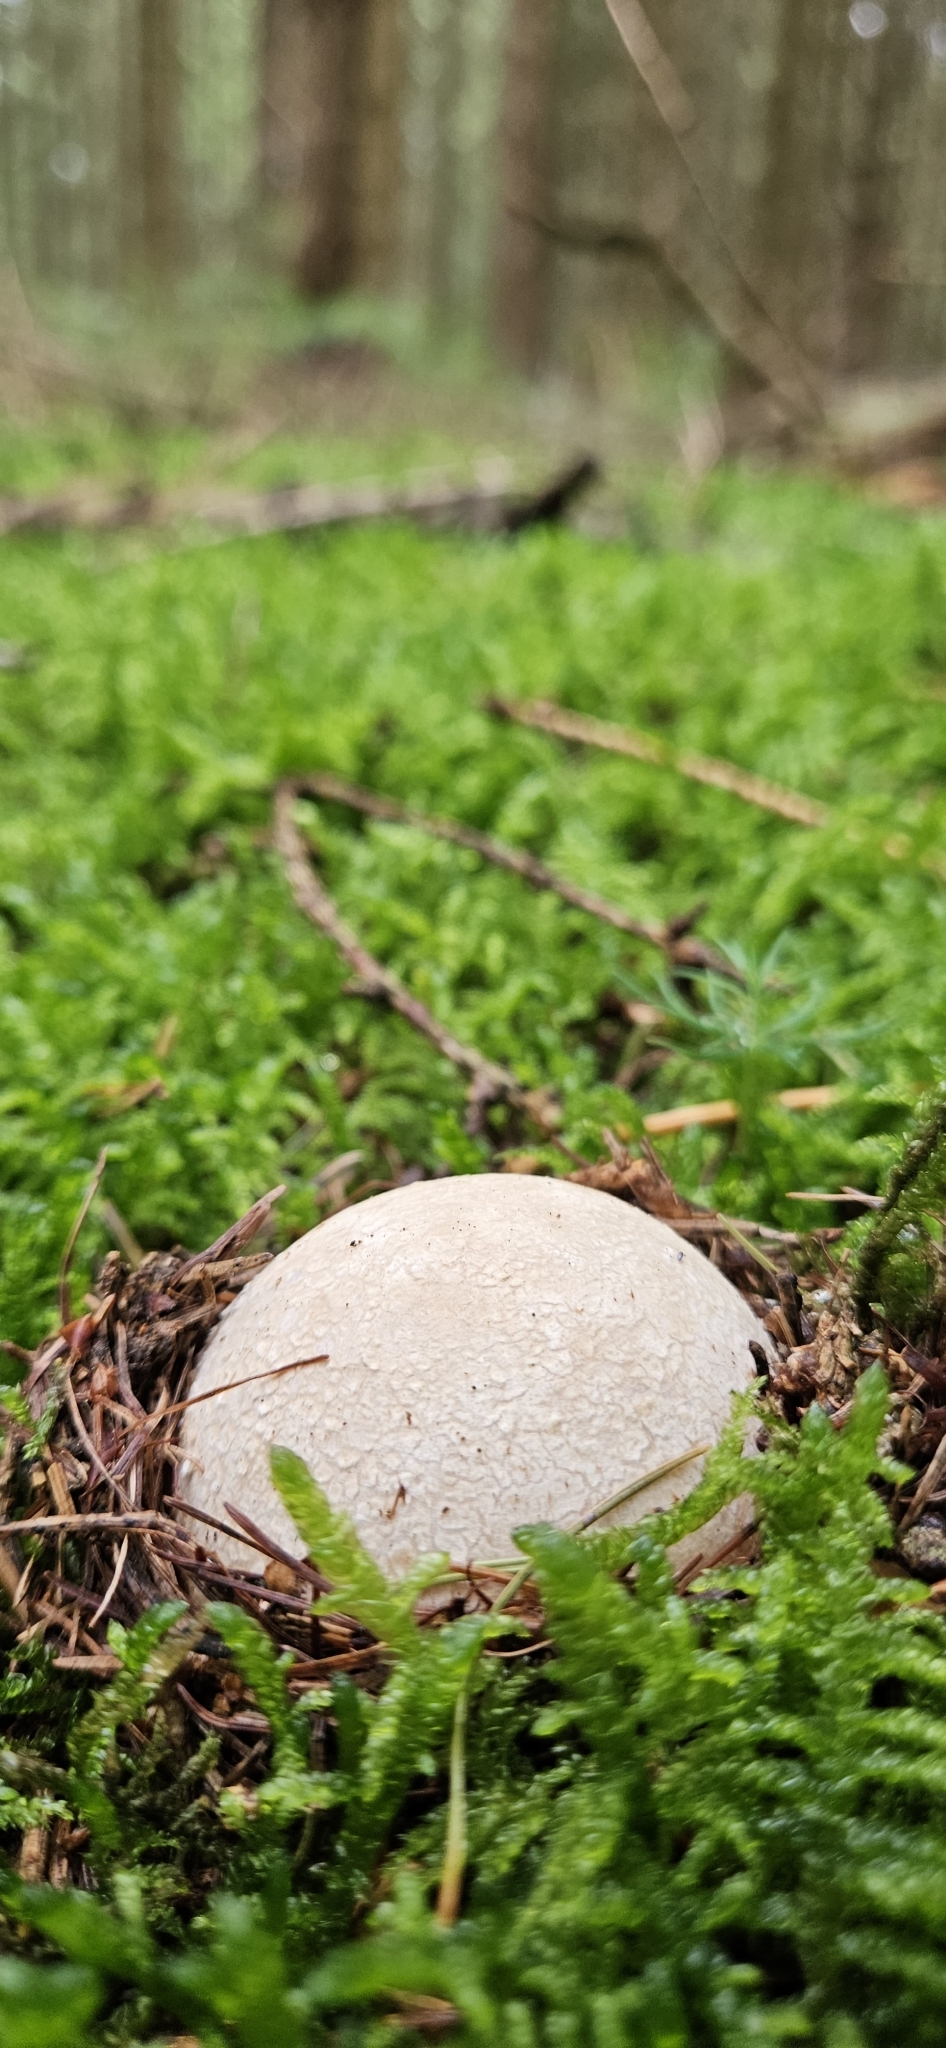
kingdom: Fungi
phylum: Basidiomycota
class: Agaricomycetes
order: Phallales
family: Phallaceae
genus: Phallus
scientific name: Phallus impudicus
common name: Common stinkhorn
